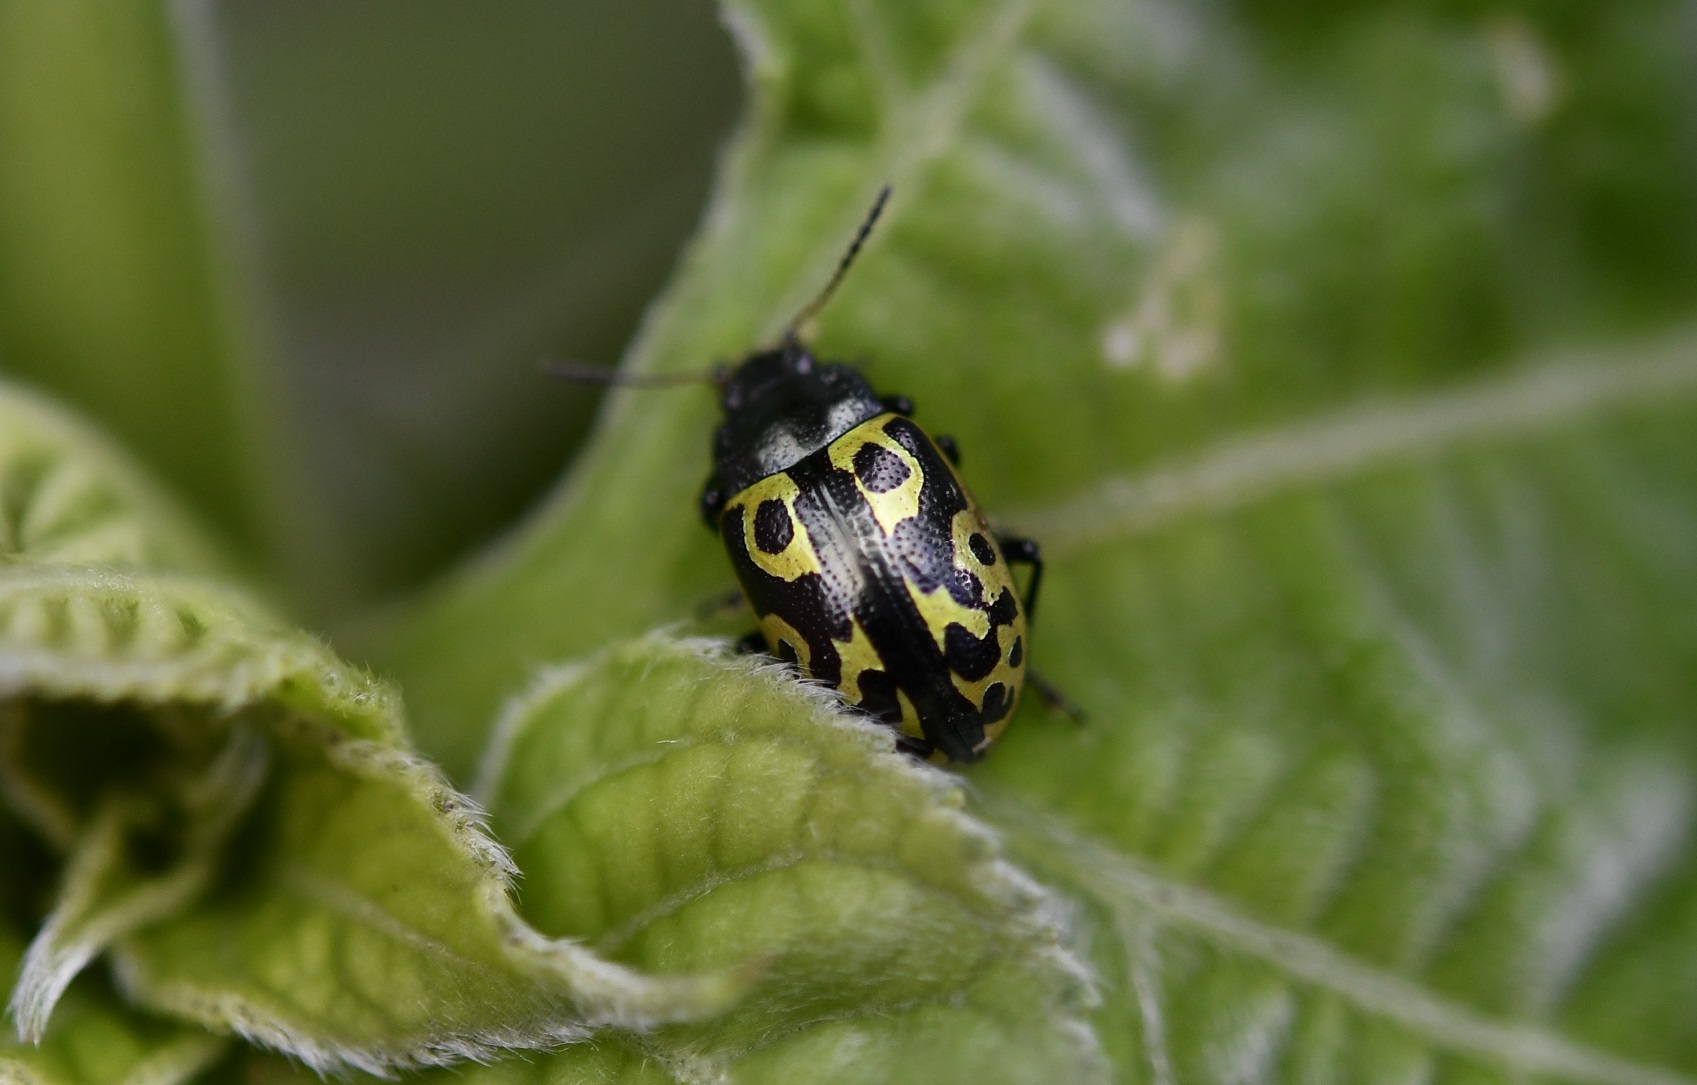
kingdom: Animalia
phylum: Arthropoda
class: Insecta
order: Coleoptera
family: Chrysomelidae
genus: Calligrapha
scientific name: Calligrapha
